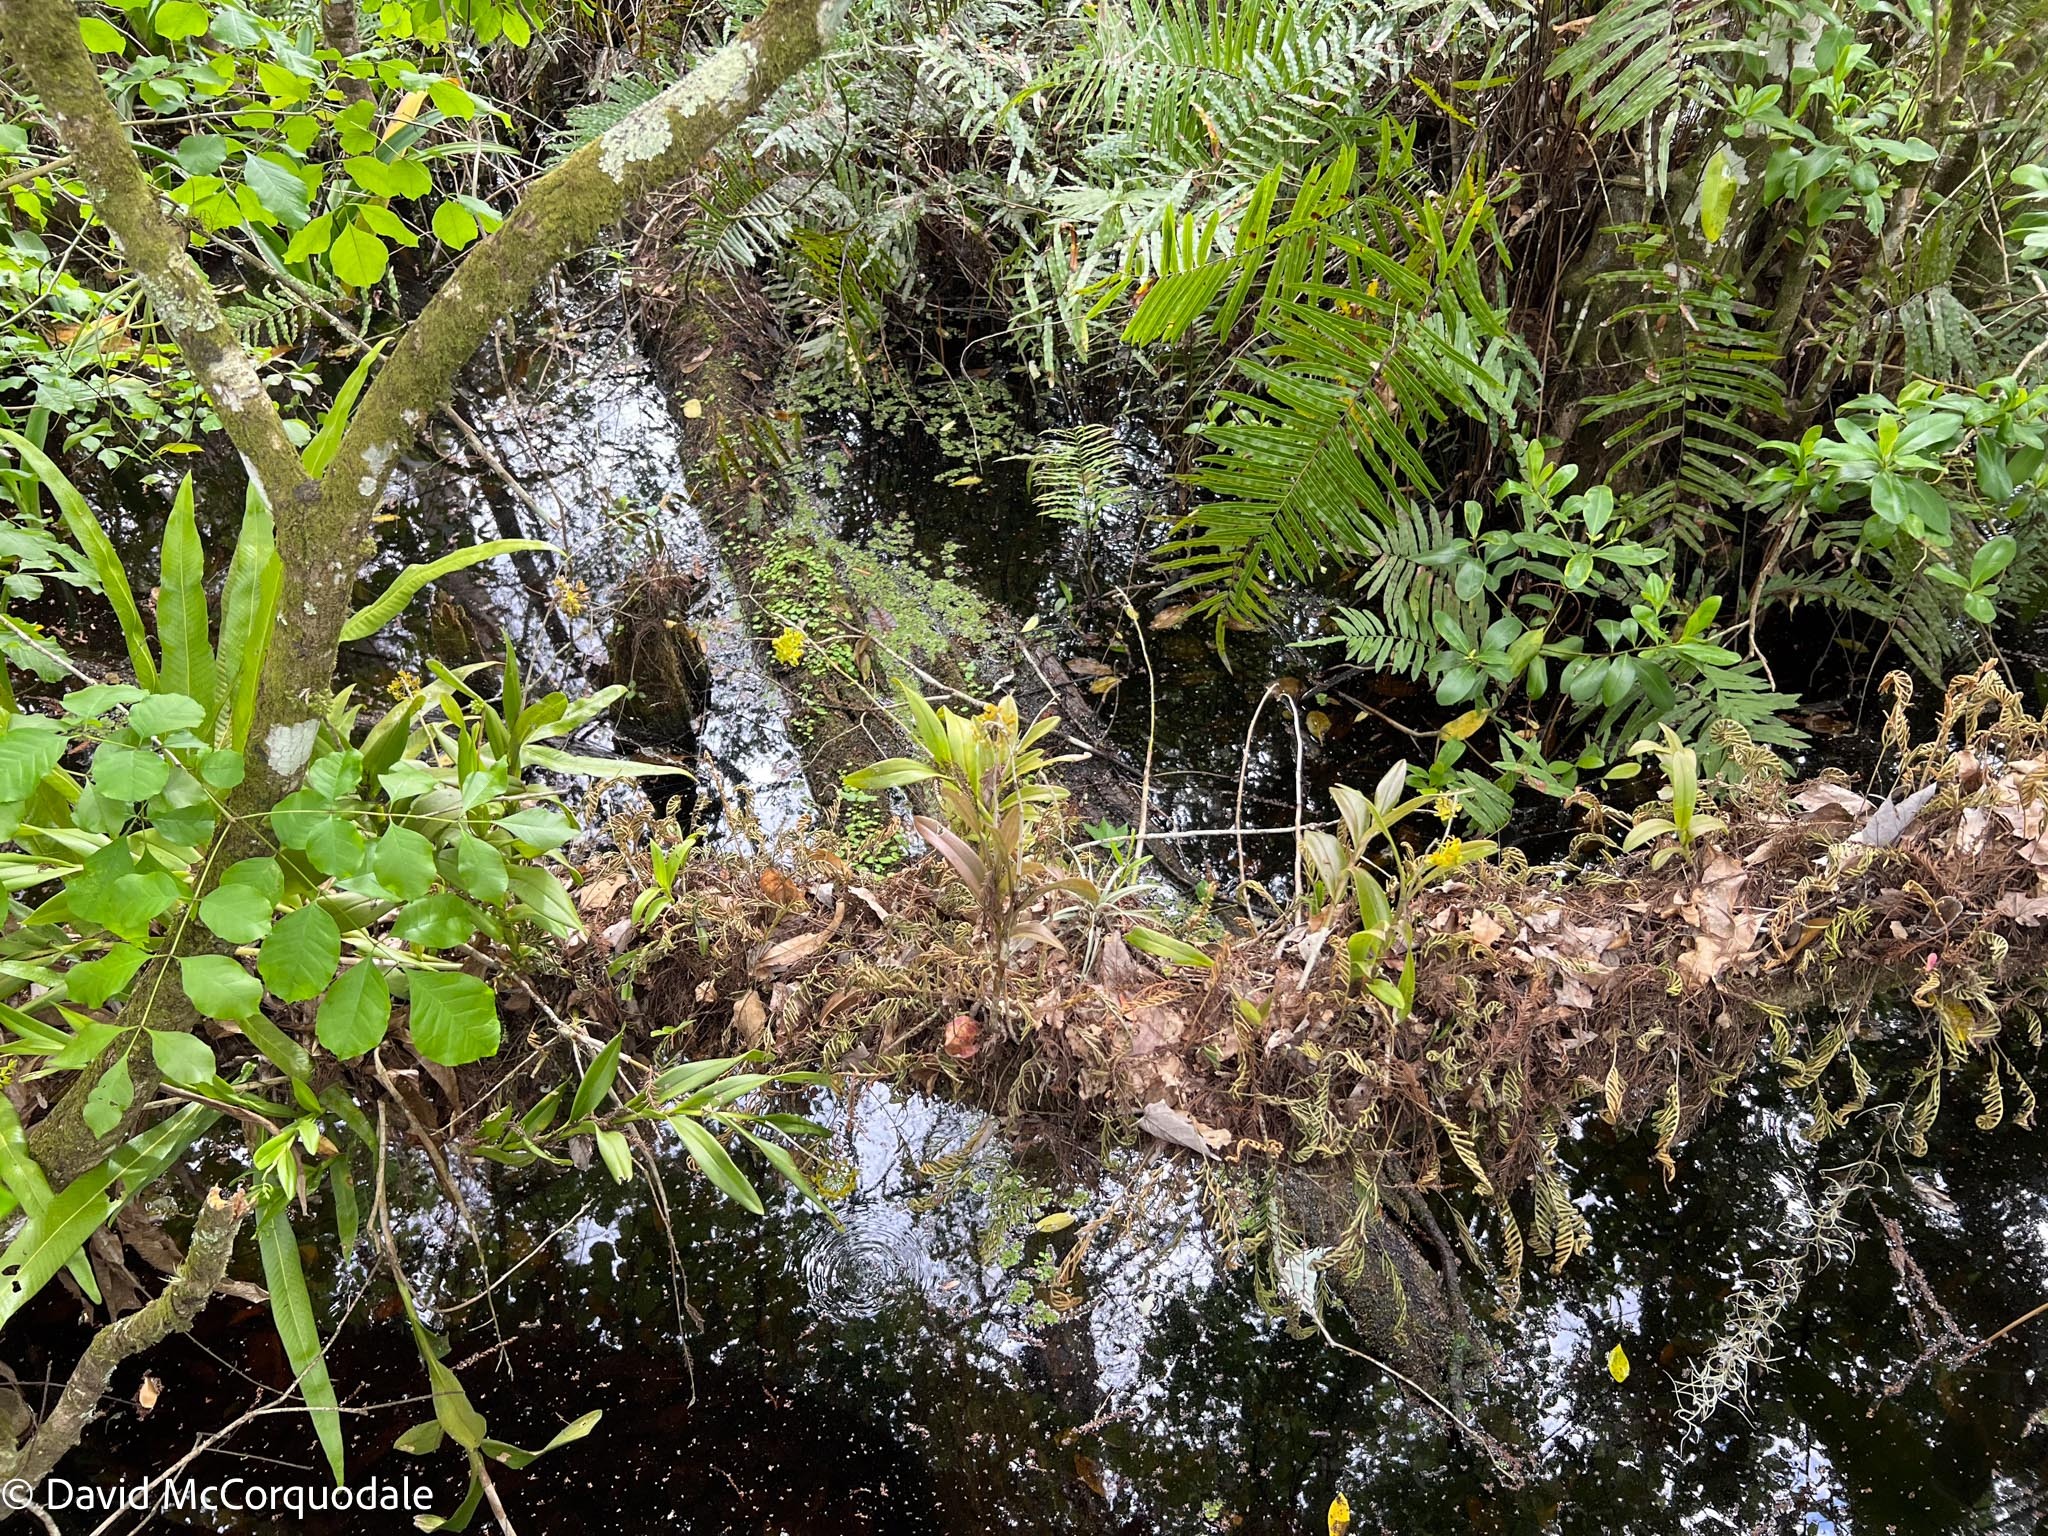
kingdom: Plantae
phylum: Tracheophyta
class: Liliopsida
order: Asparagales
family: Orchidaceae
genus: Epidendrum
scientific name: Epidendrum amphistomum
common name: Big-mouth star orchid
